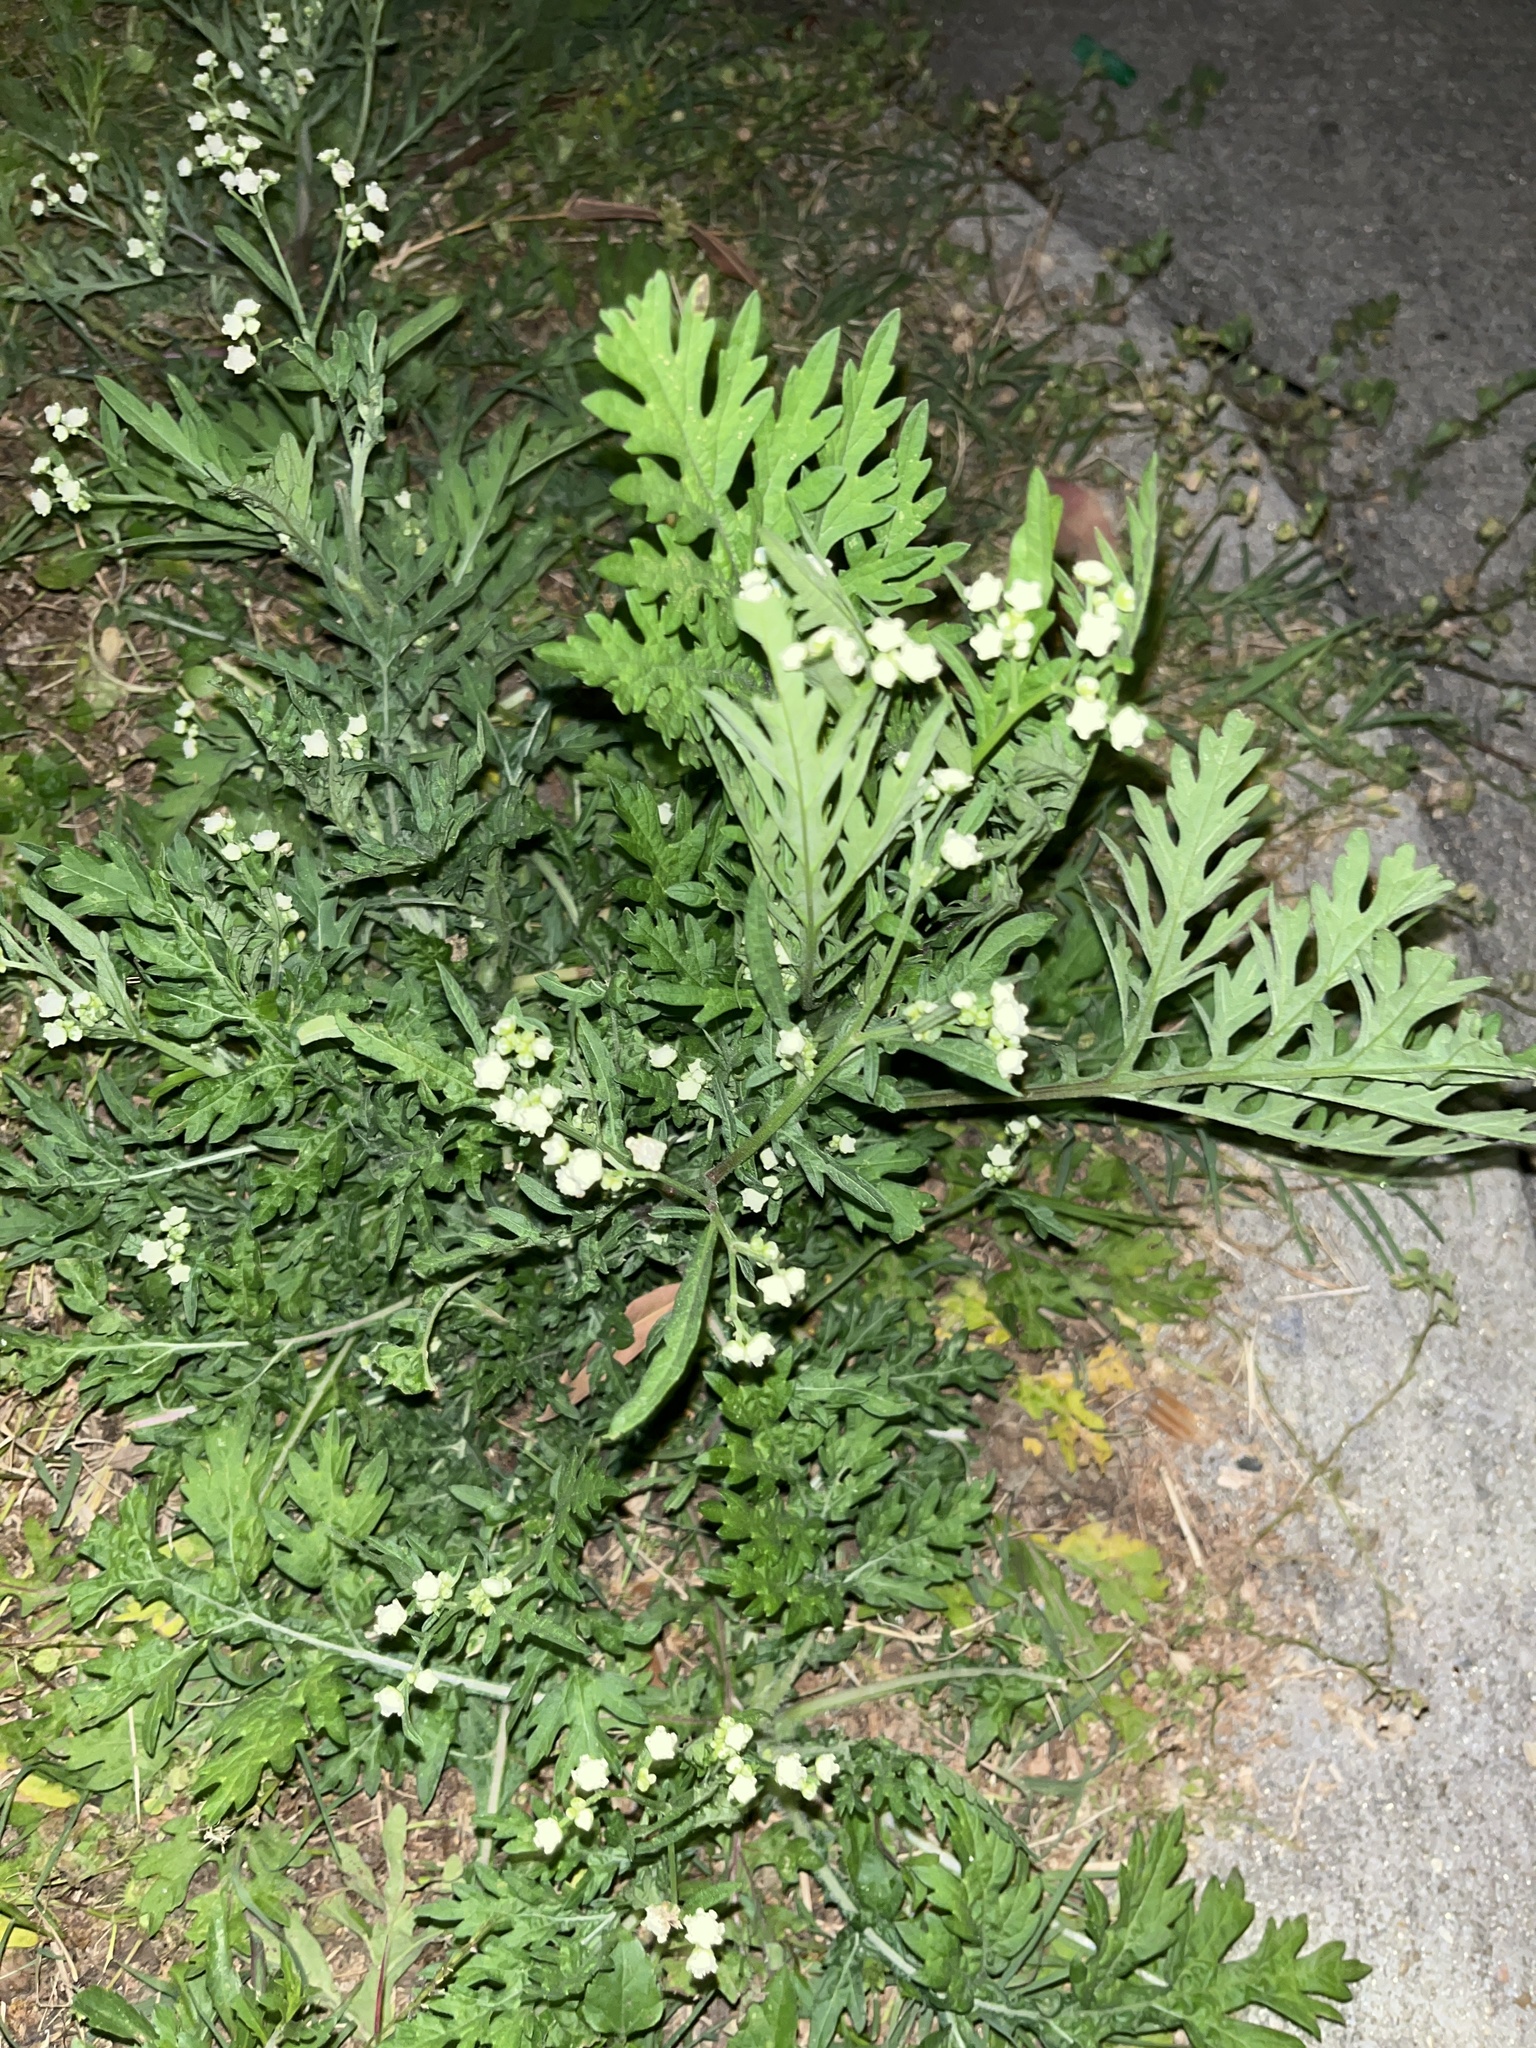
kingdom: Plantae
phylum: Tracheophyta
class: Magnoliopsida
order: Asterales
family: Asteraceae
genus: Parthenium
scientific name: Parthenium hysterophorus
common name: Santa maria feverfew
